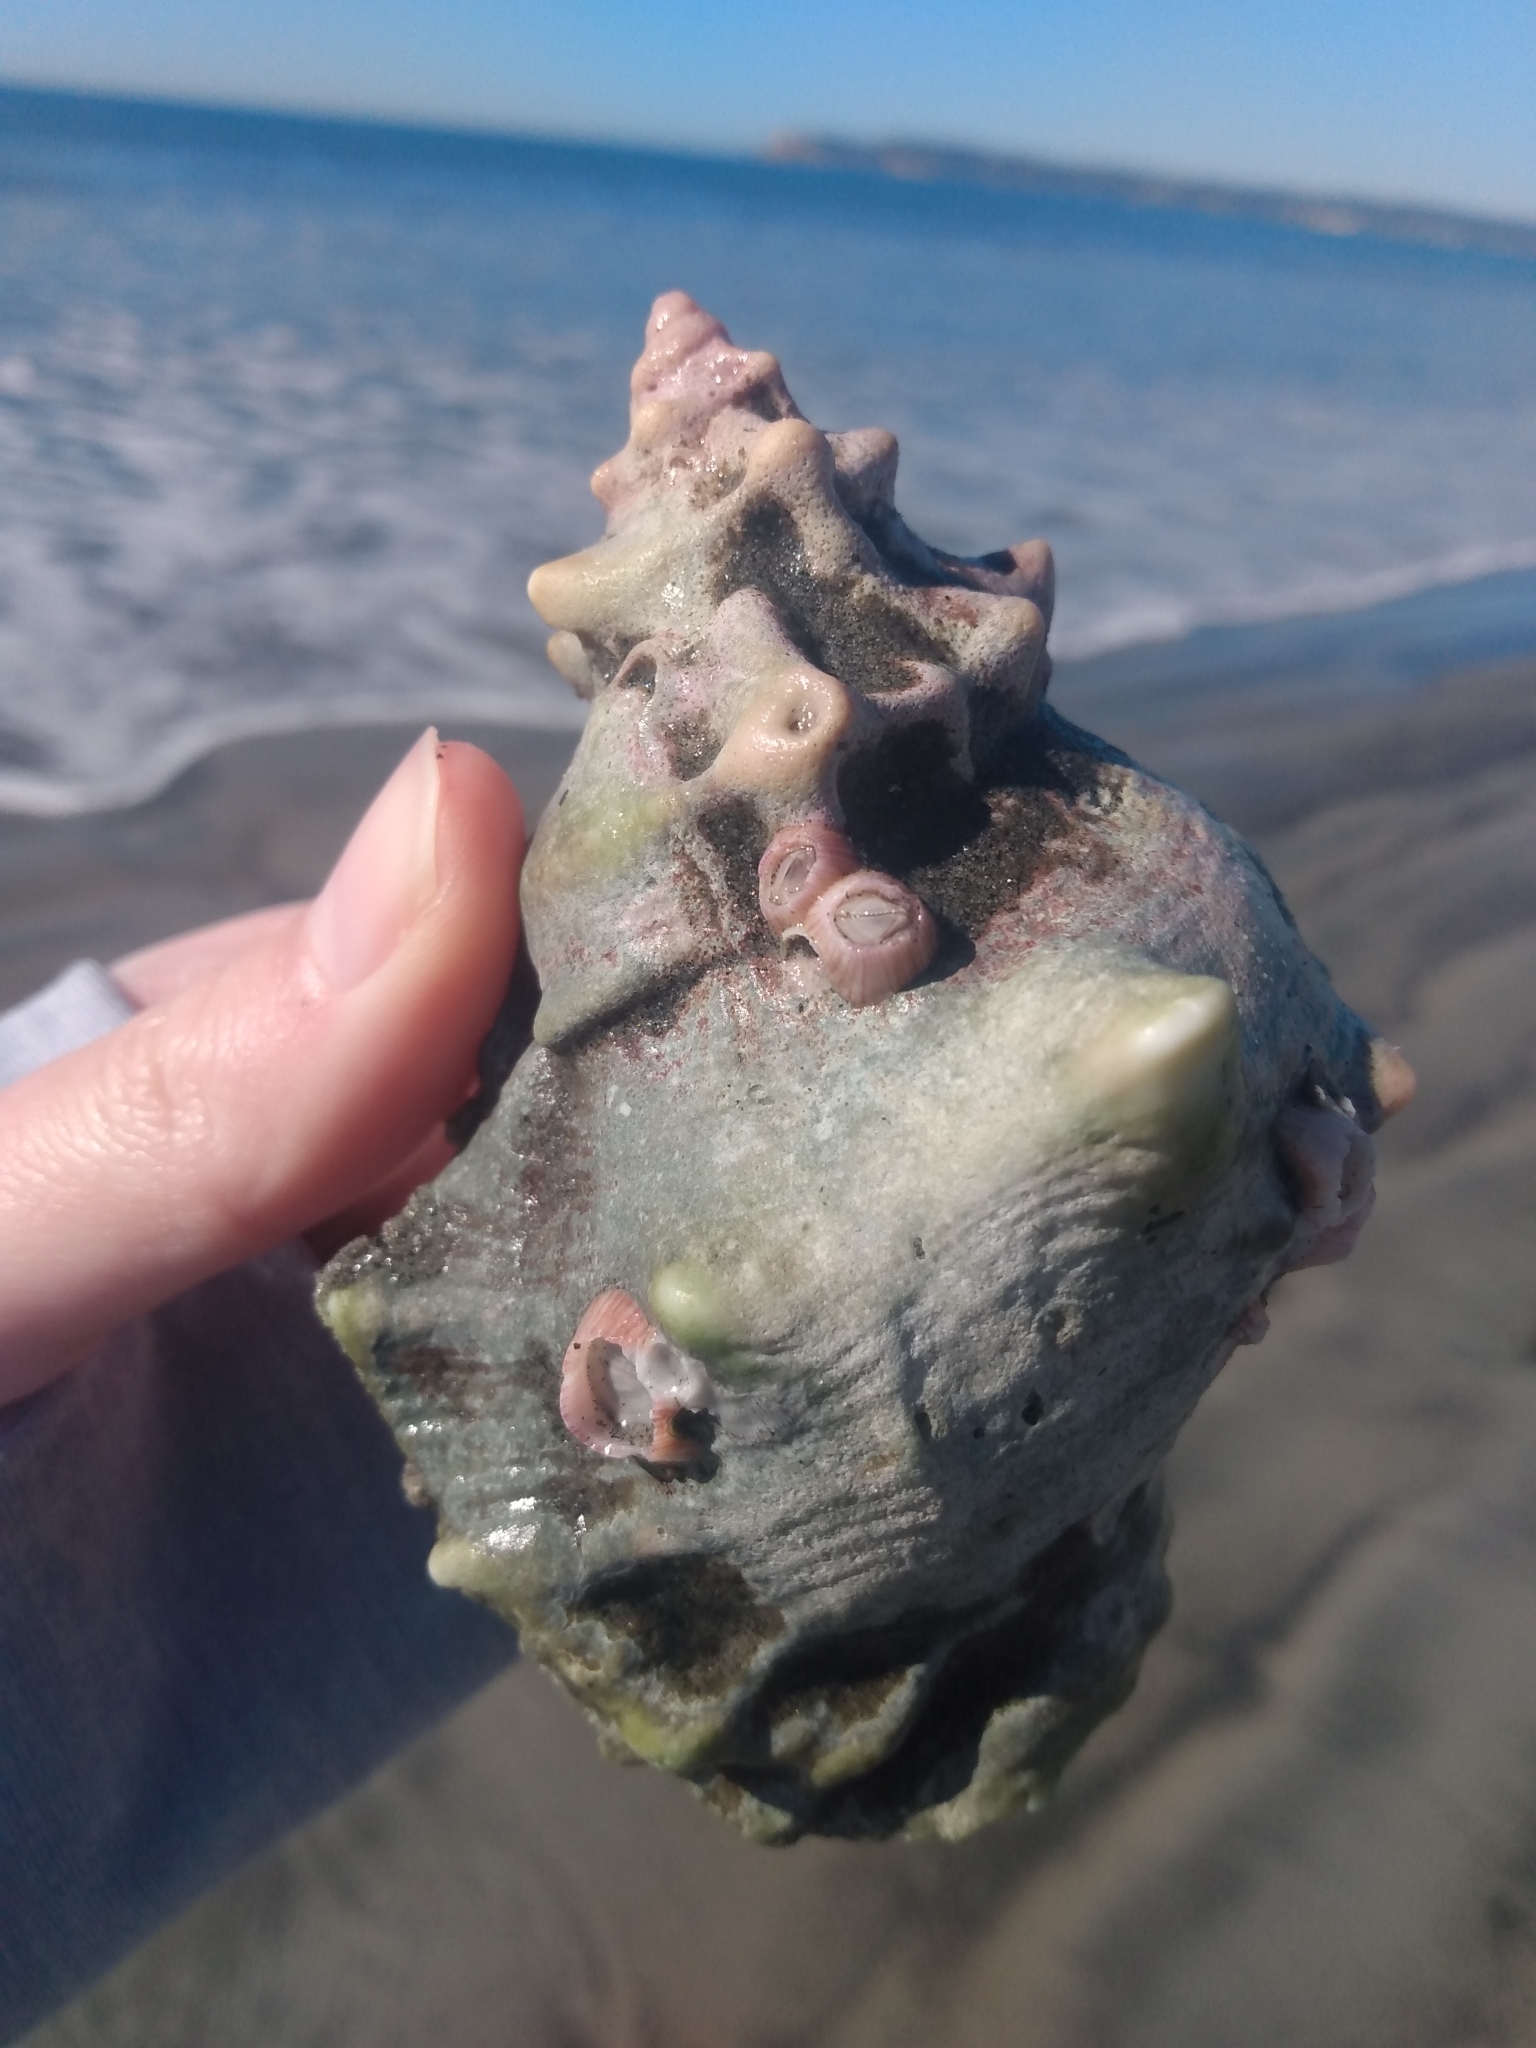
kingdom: Animalia
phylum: Mollusca
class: Gastropoda
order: Littorinimorpha
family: Bursidae
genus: Crossata
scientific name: Crossata californica
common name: California frogsnail
